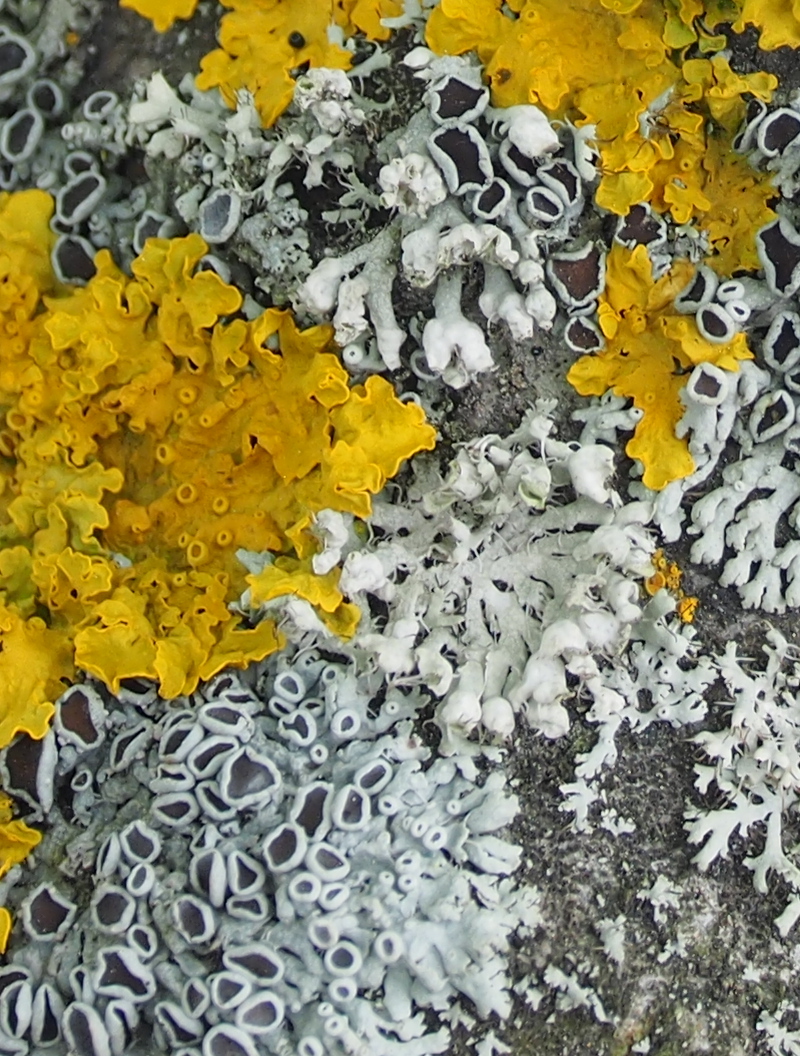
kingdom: Fungi
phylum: Ascomycota
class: Lecanoromycetes
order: Caliciales
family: Physciaceae
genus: Physcia
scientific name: Physcia adscendens
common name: Hooded rosette lichen
